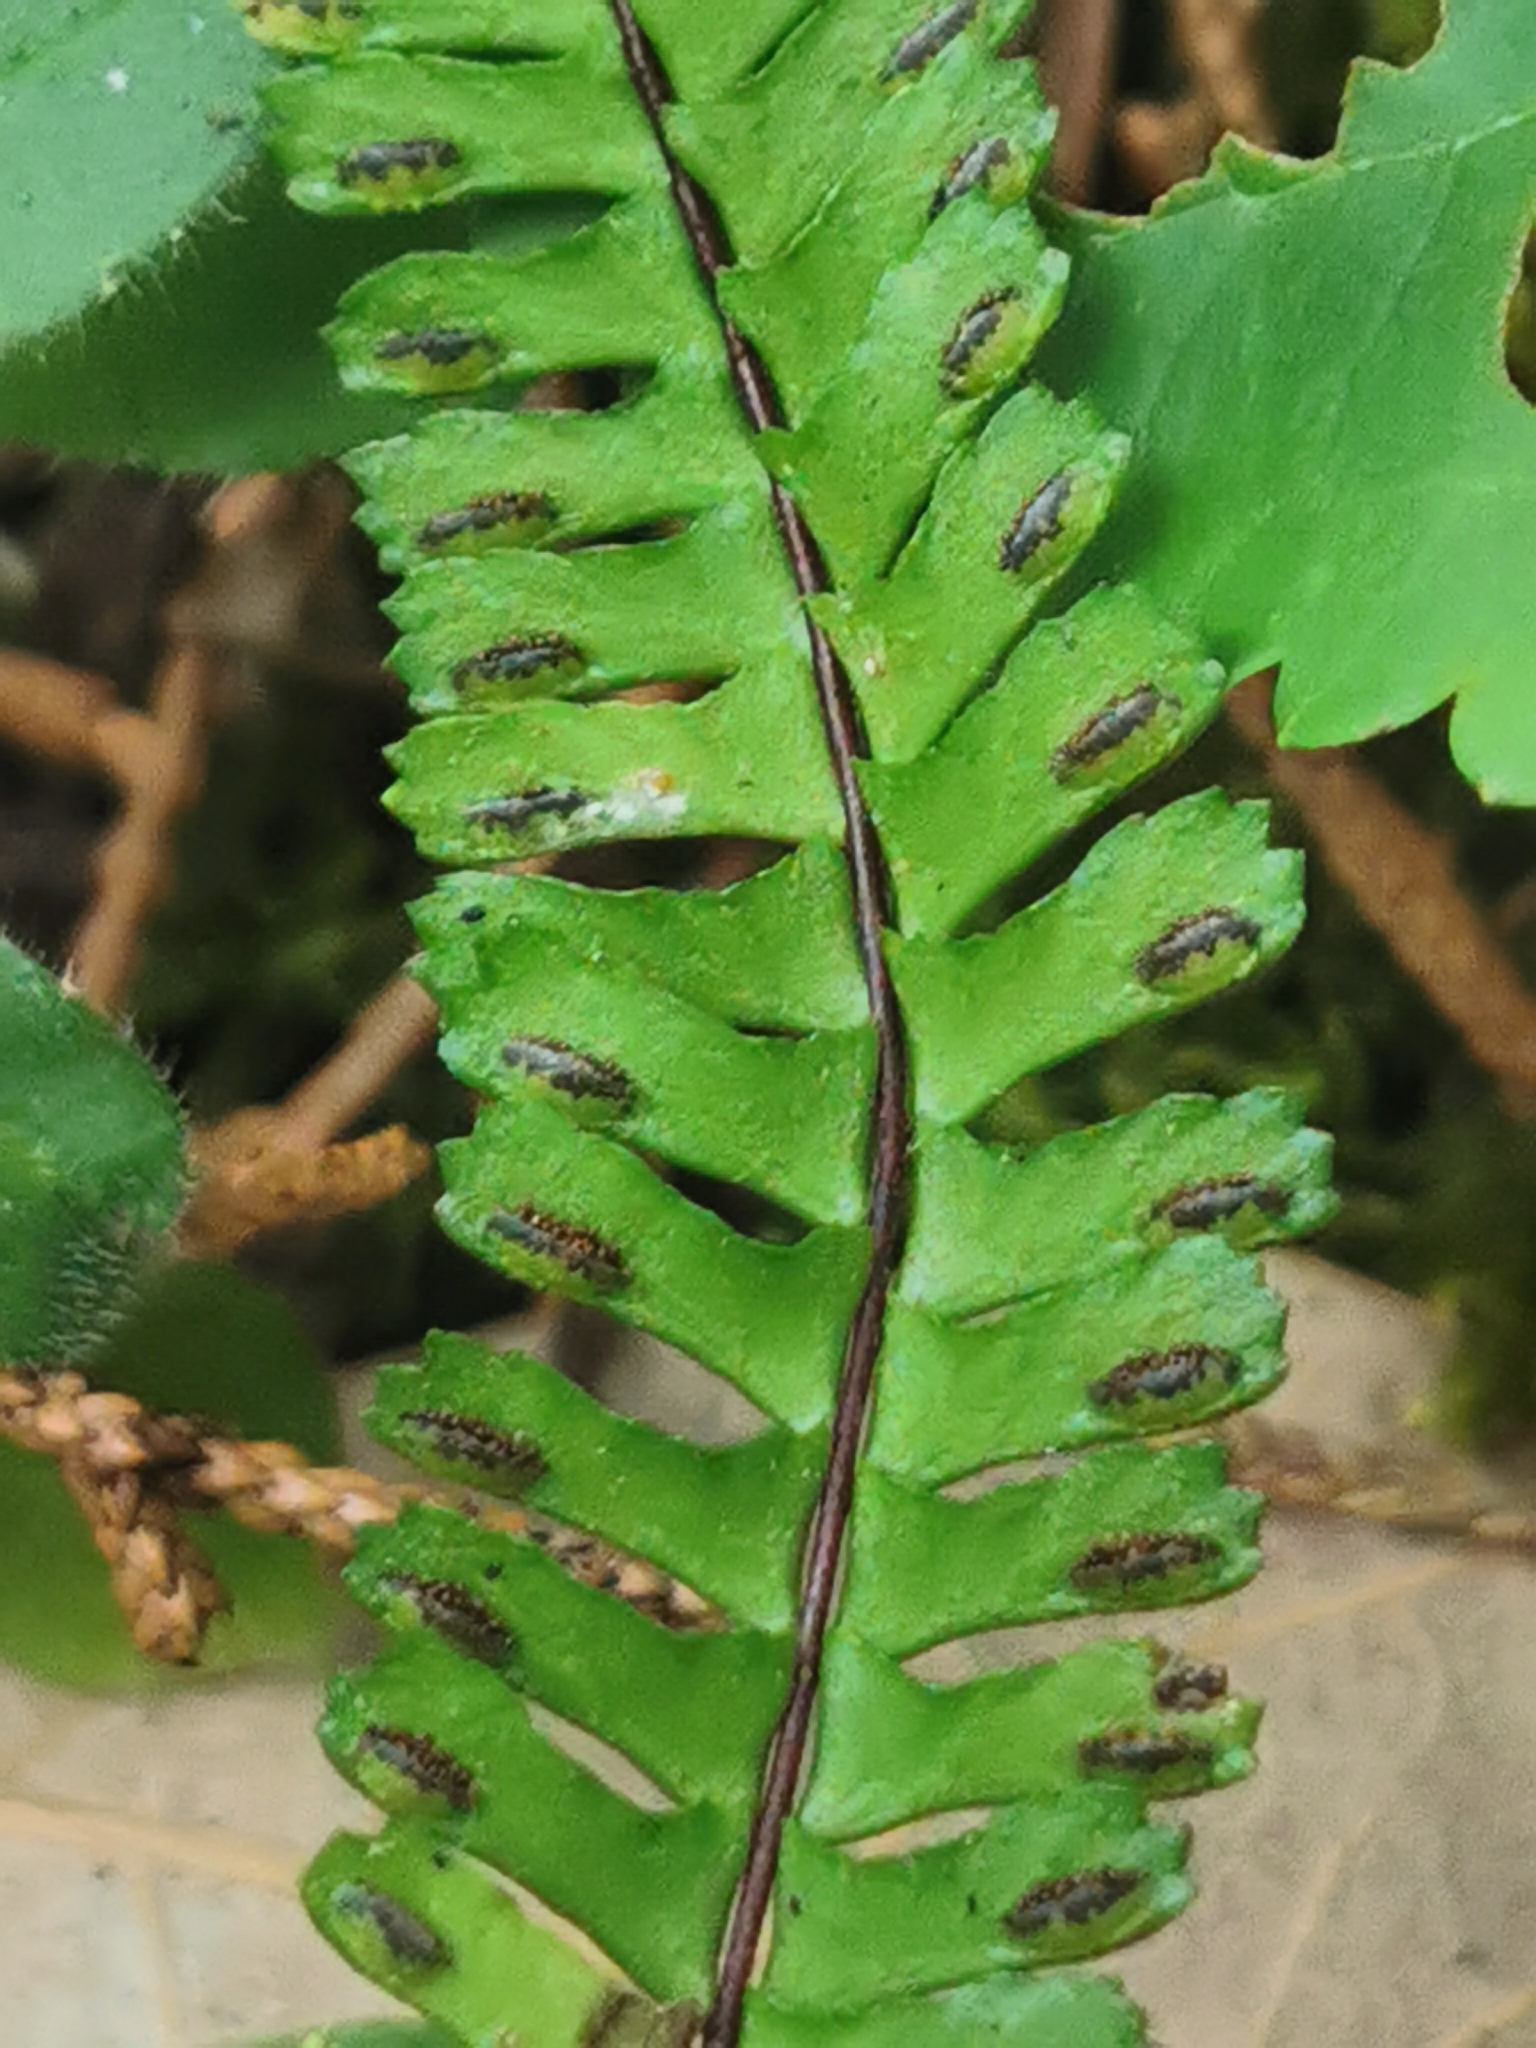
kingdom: Plantae
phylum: Tracheophyta
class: Polypodiopsida
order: Polypodiales
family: Aspleniaceae
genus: Asplenium
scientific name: Asplenium monanthes
